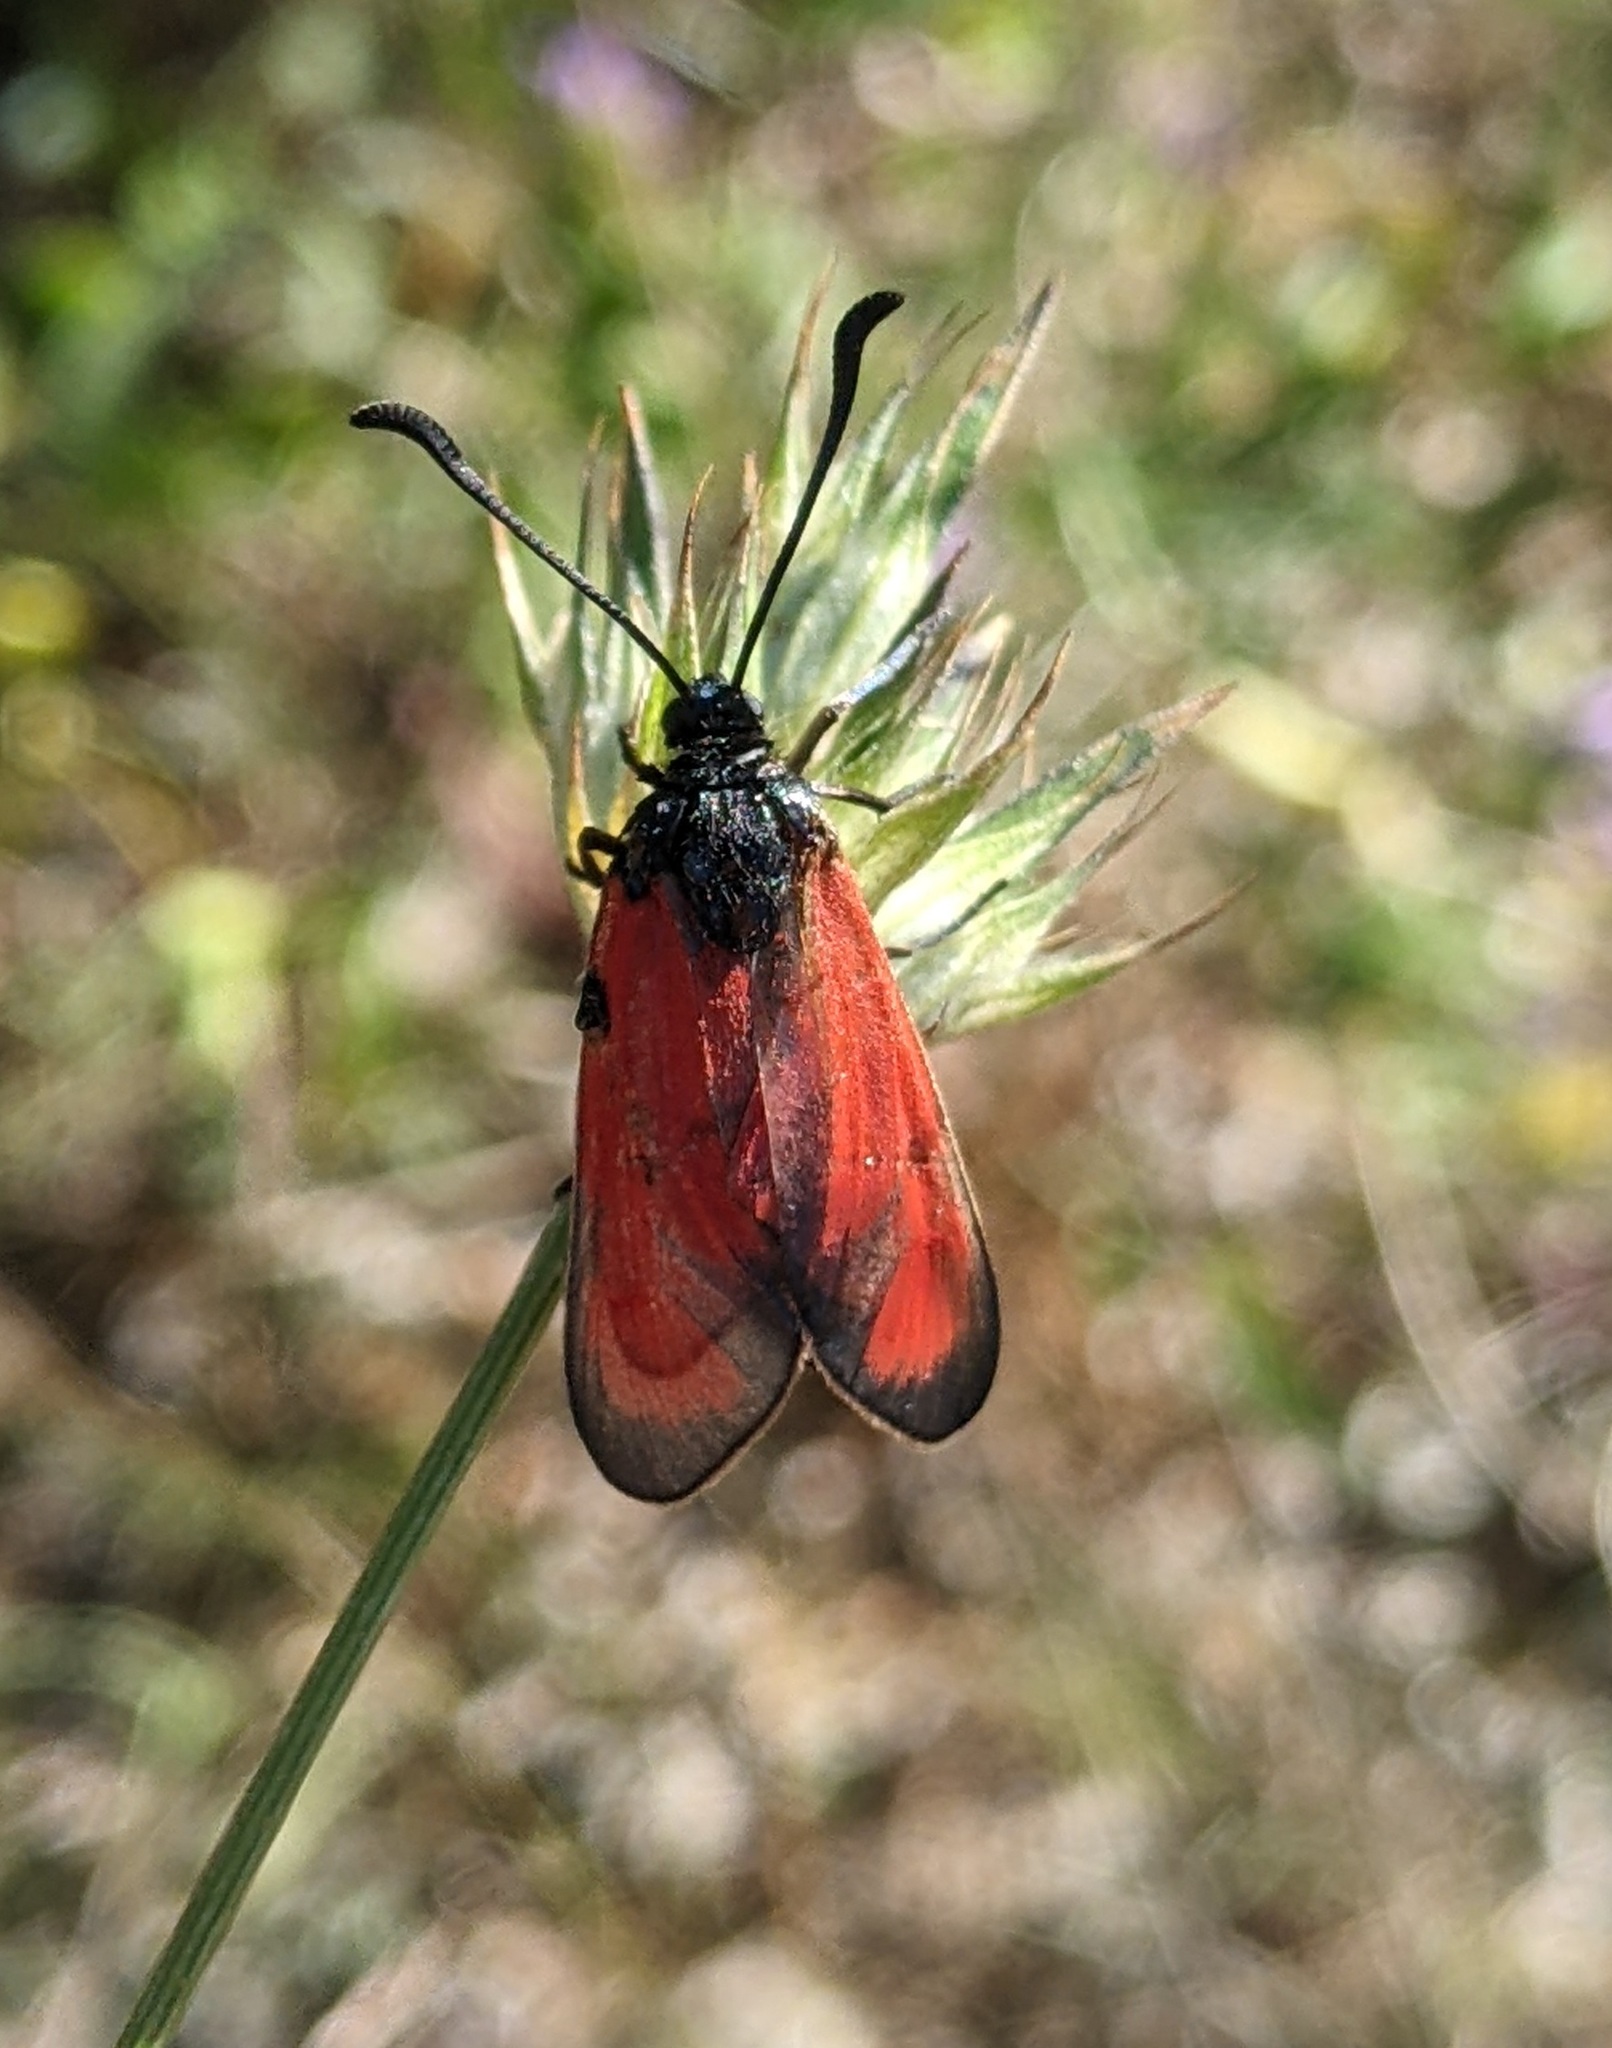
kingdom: Animalia
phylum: Arthropoda
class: Insecta
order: Lepidoptera
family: Zygaenidae
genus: Zygaena
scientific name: Zygaena erythrus
